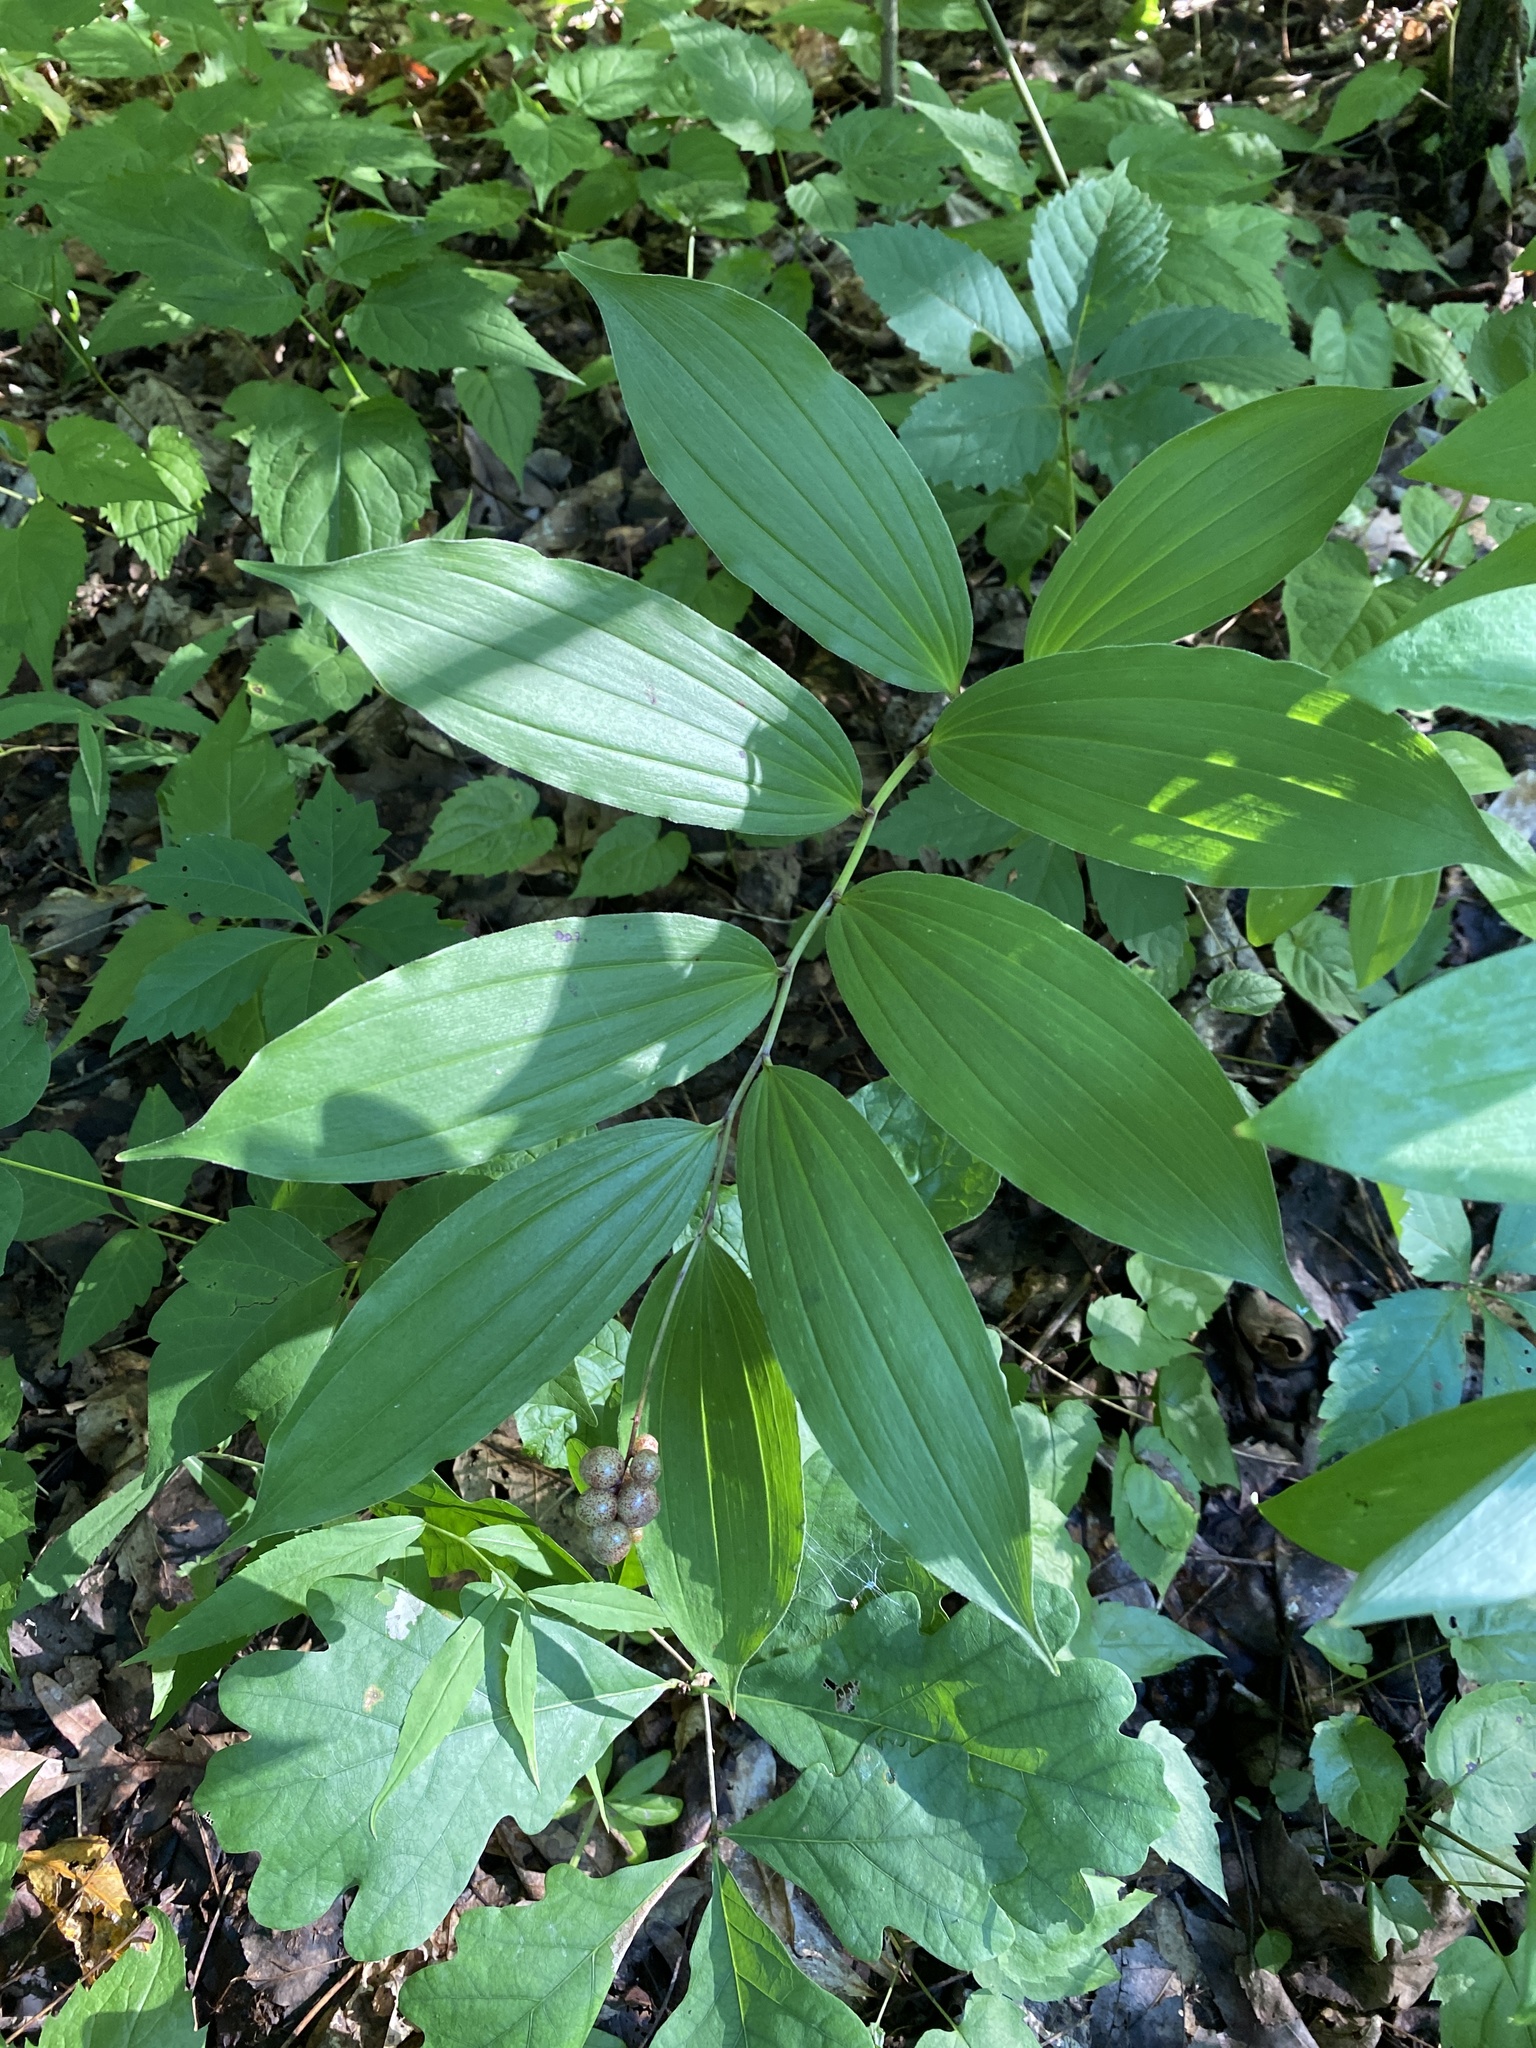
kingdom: Plantae
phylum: Tracheophyta
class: Liliopsida
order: Asparagales
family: Asparagaceae
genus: Maianthemum
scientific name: Maianthemum racemosum
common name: False spikenard
